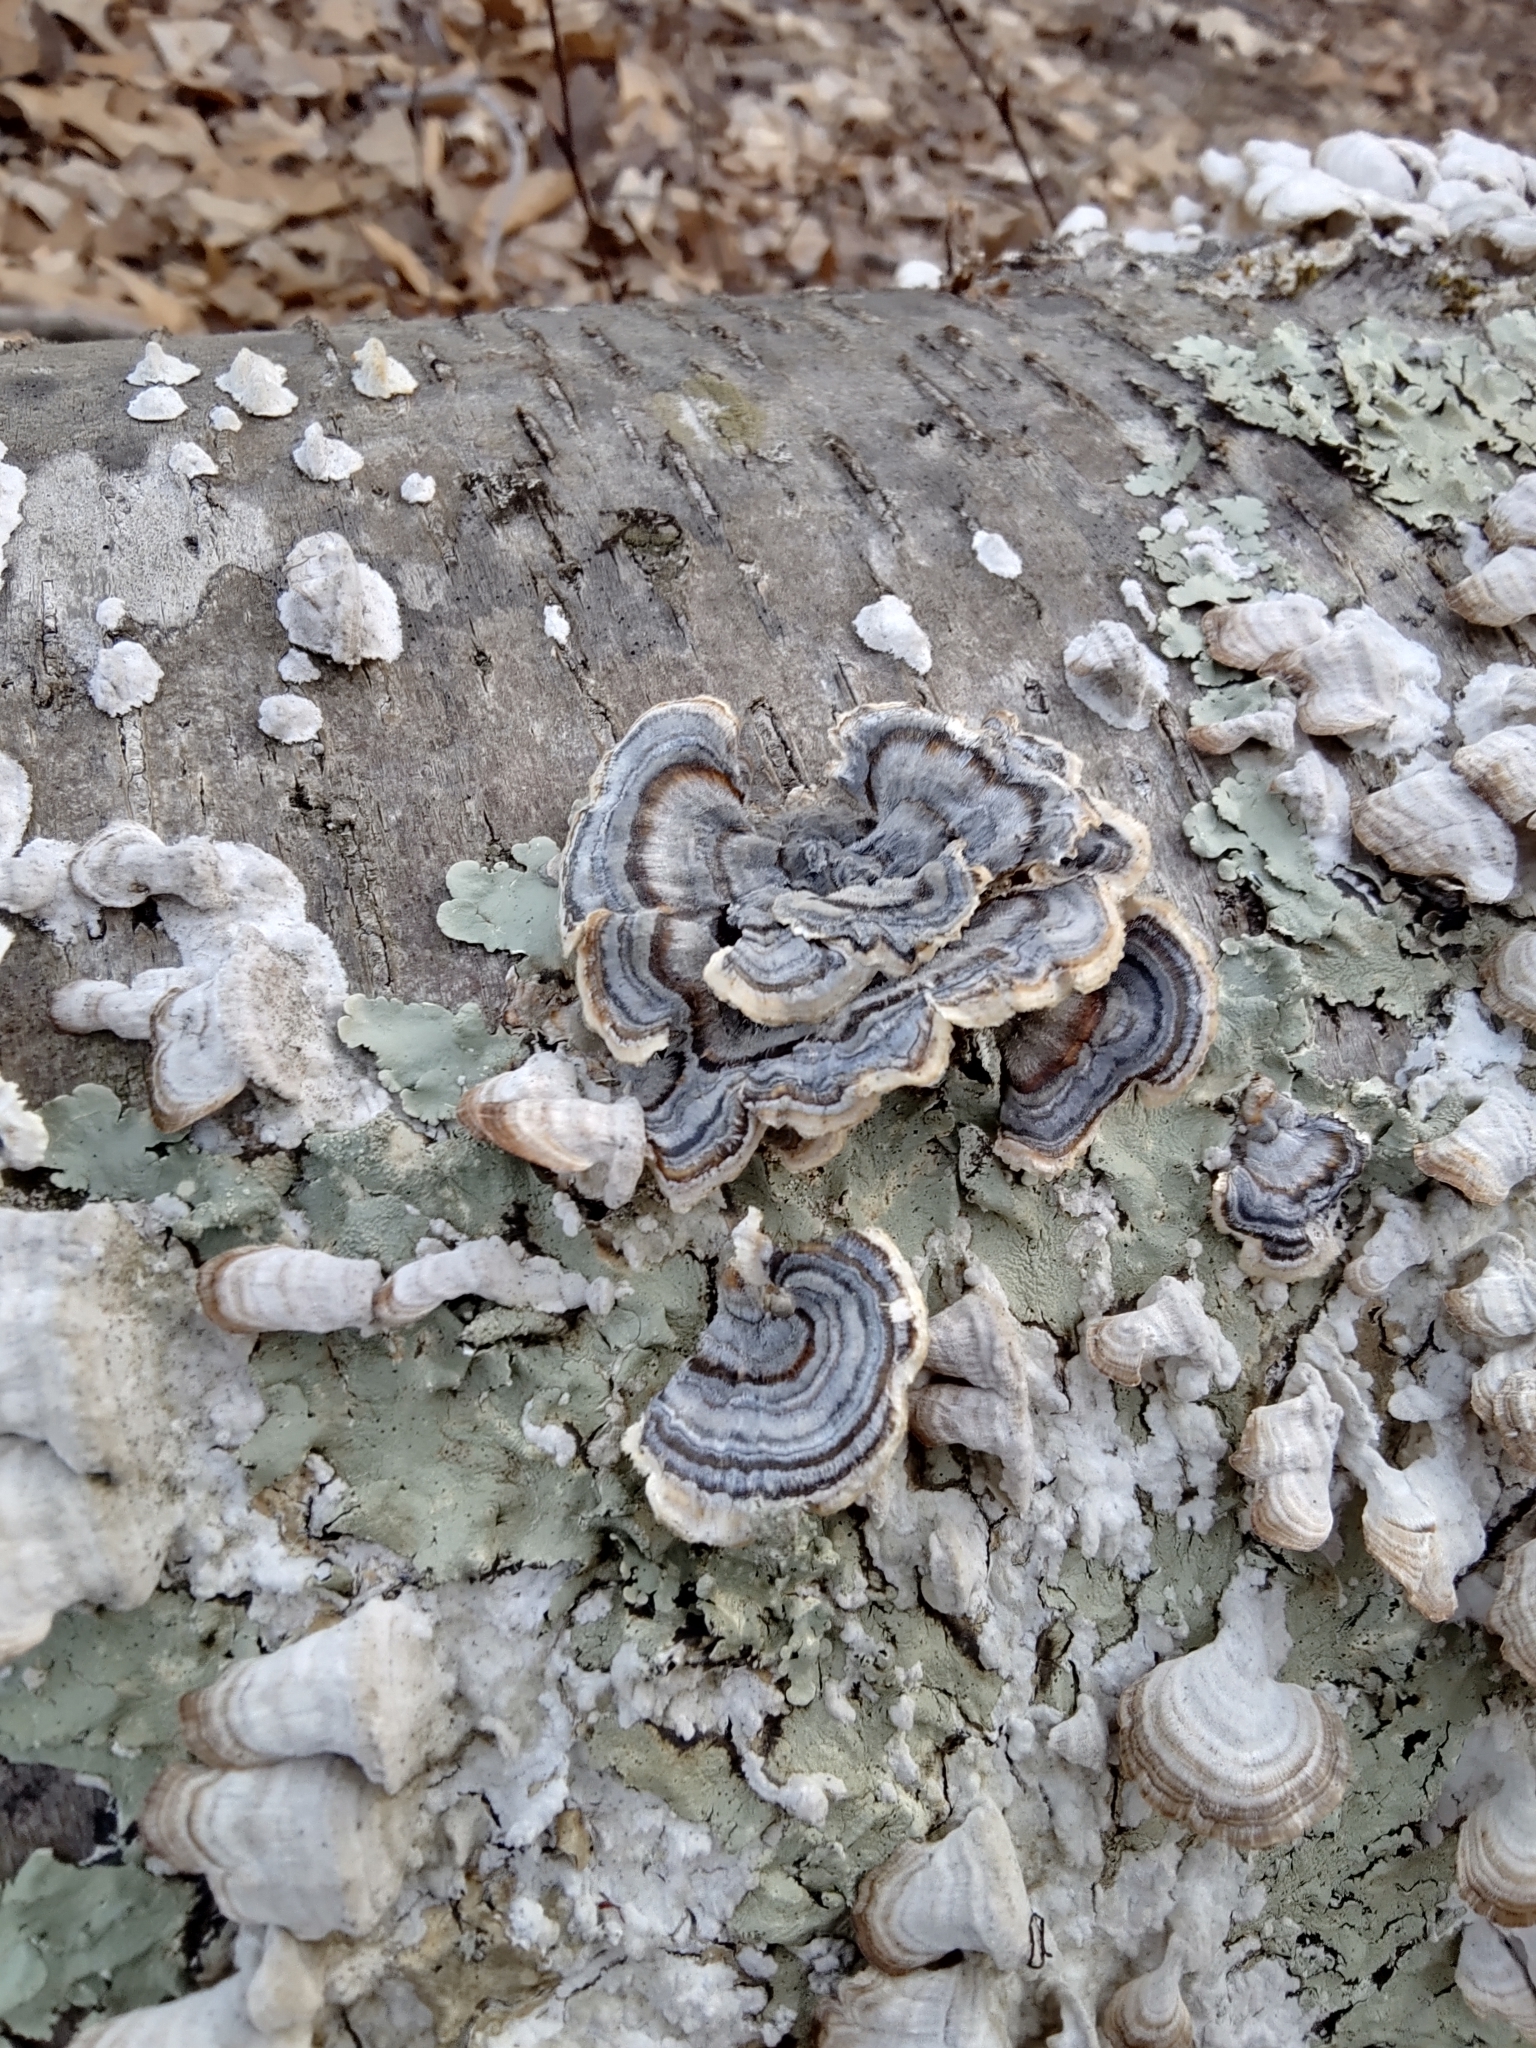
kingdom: Fungi
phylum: Basidiomycota
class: Agaricomycetes
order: Polyporales
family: Polyporaceae
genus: Trametes
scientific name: Trametes versicolor
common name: Turkeytail
